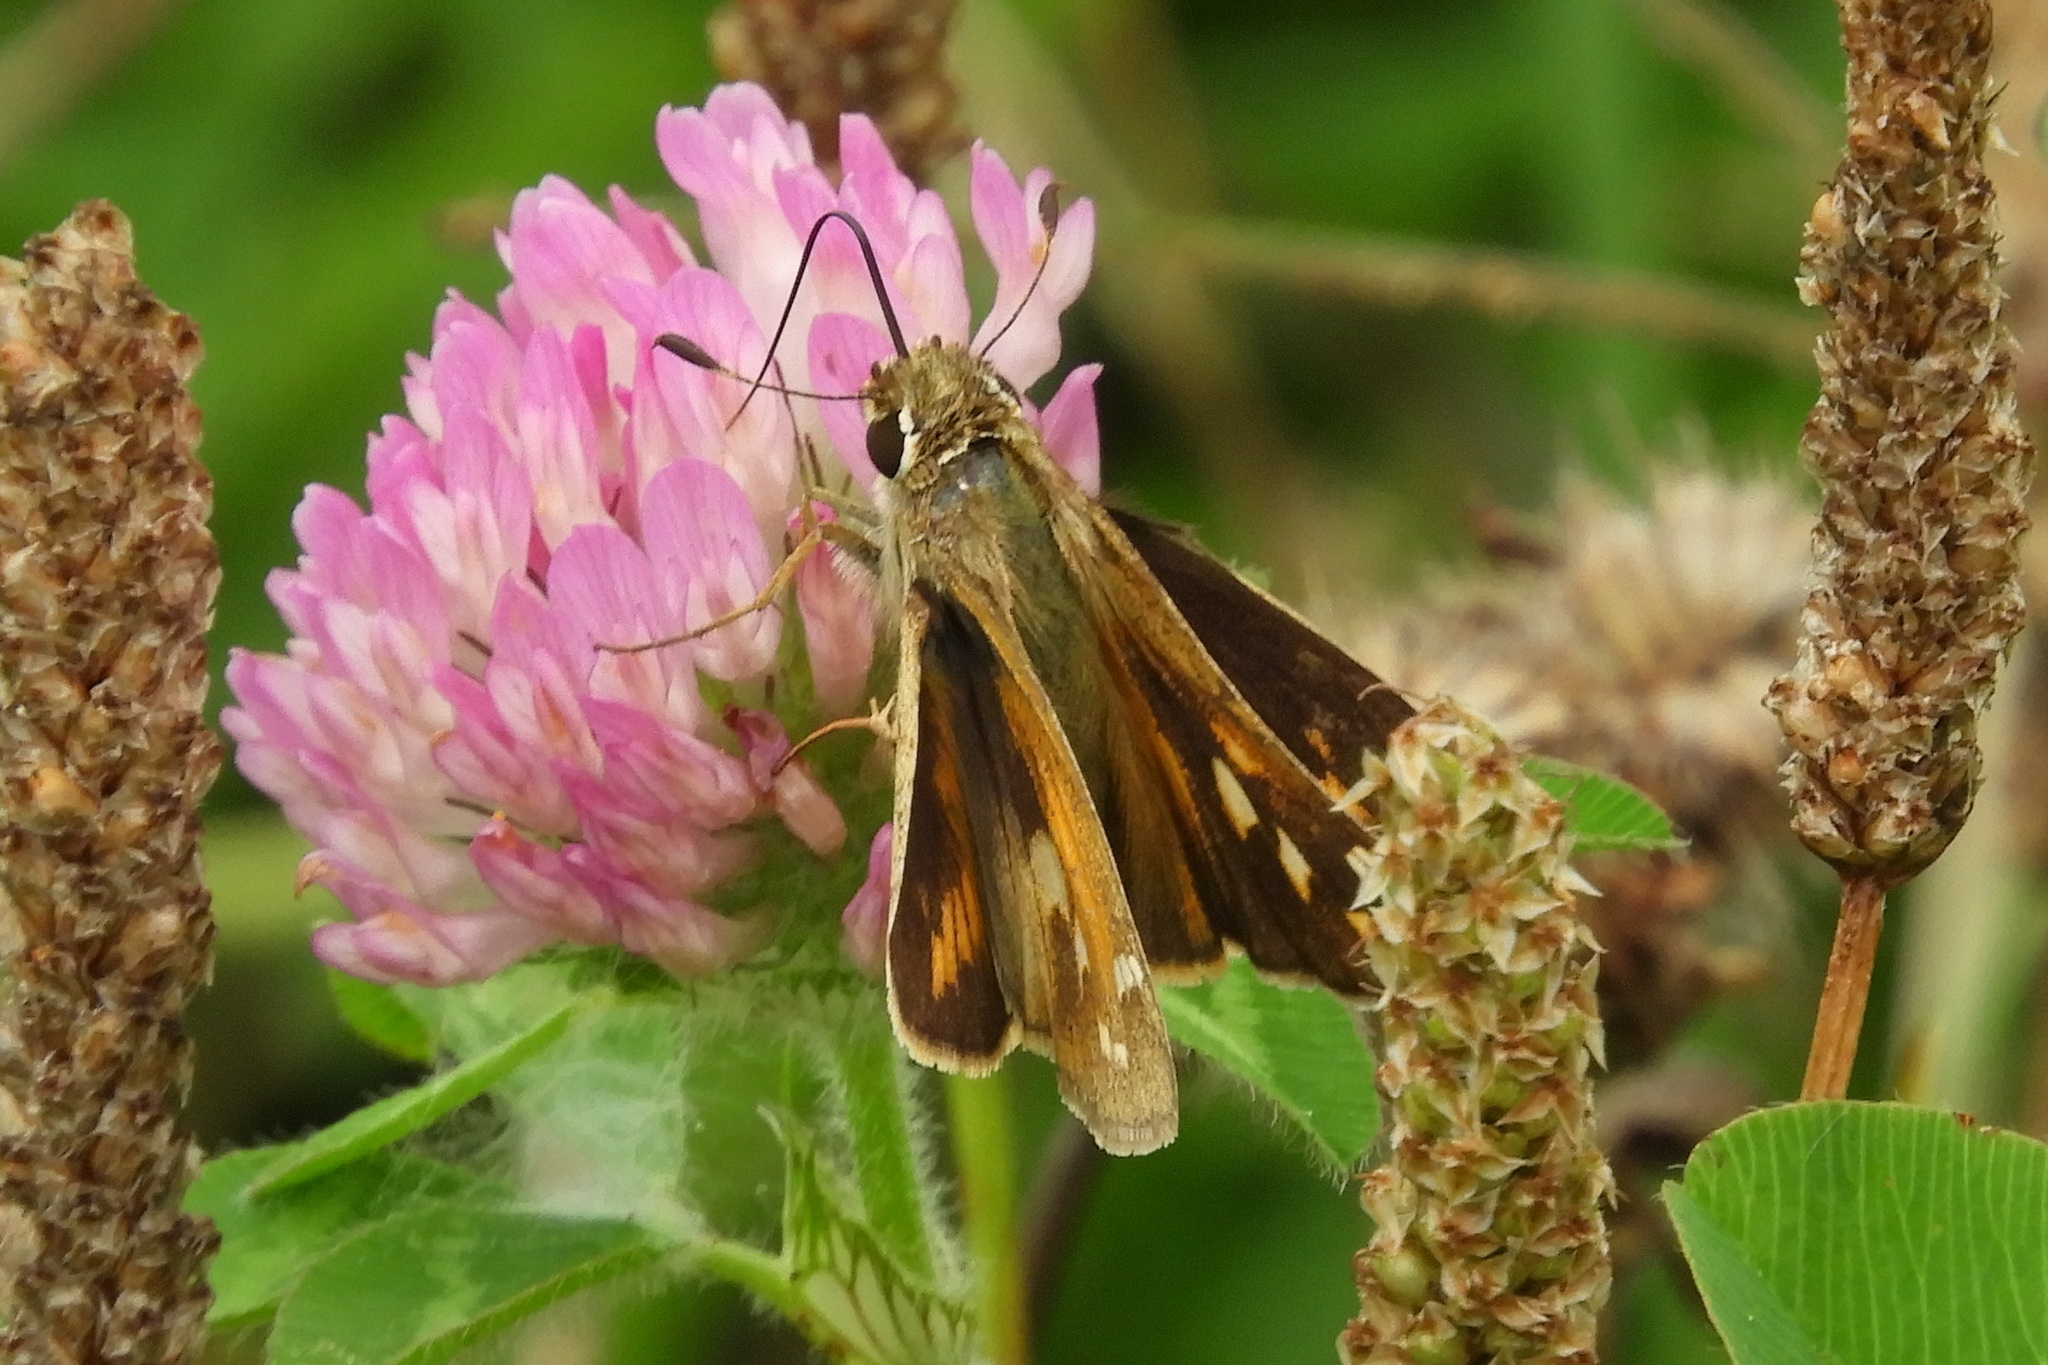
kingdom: Animalia
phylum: Arthropoda
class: Insecta
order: Lepidoptera
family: Hesperiidae
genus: Atalopedes
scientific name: Atalopedes
